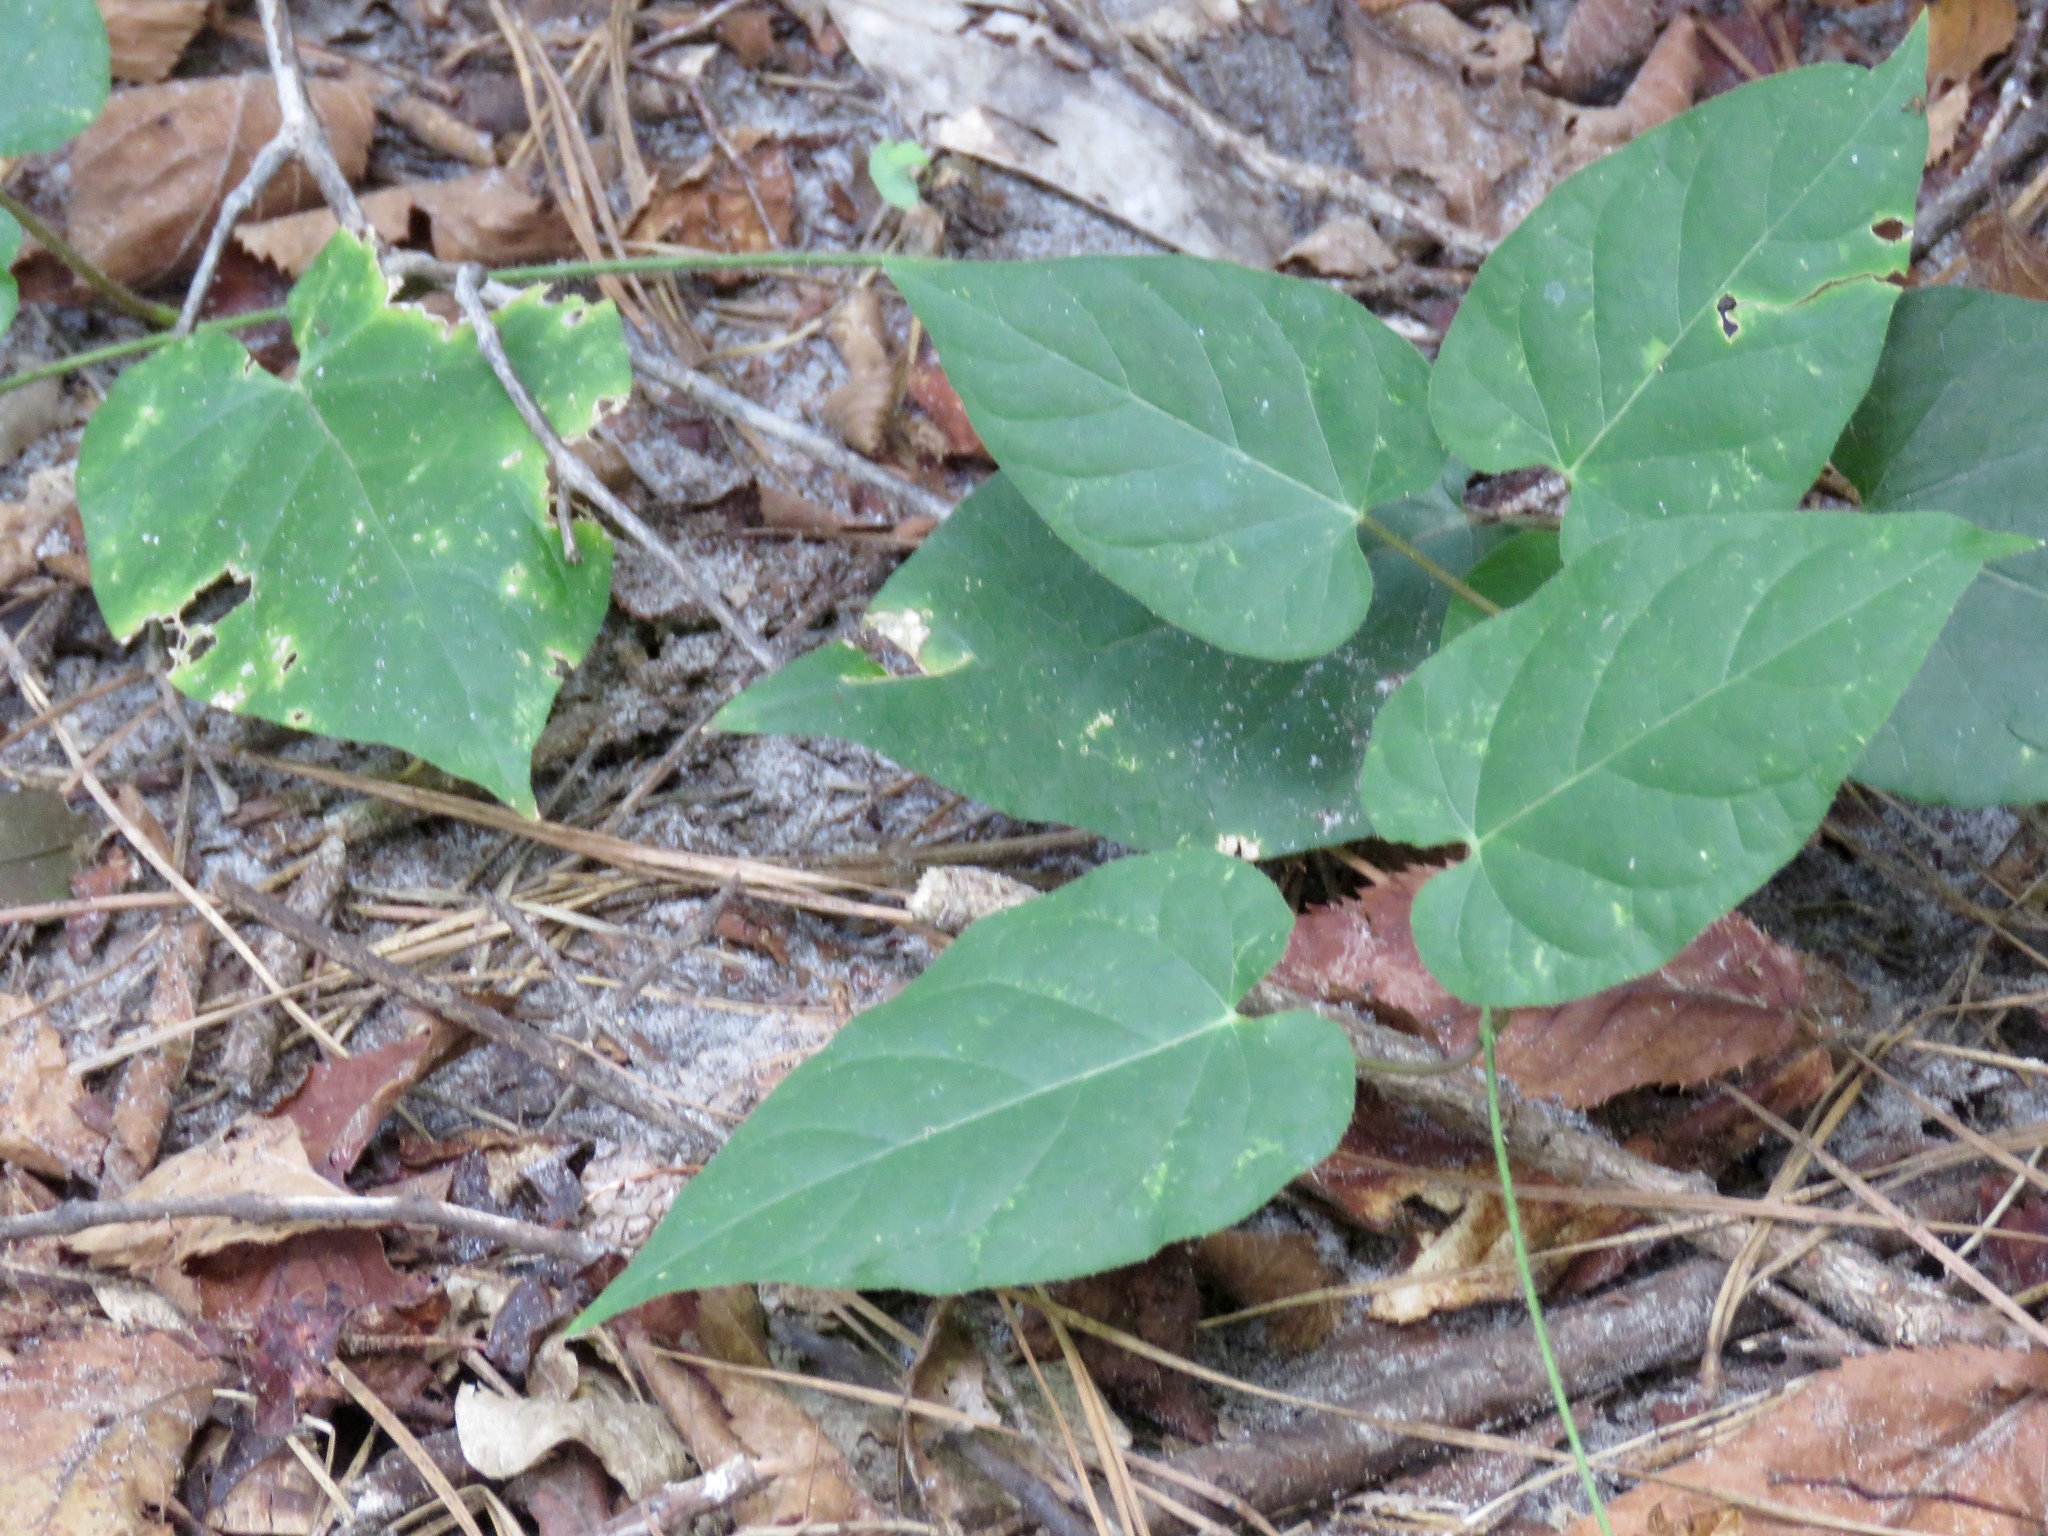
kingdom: Plantae
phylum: Tracheophyta
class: Magnoliopsida
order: Gentianales
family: Apocynaceae
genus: Gonolobus
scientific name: Gonolobus suberosus
